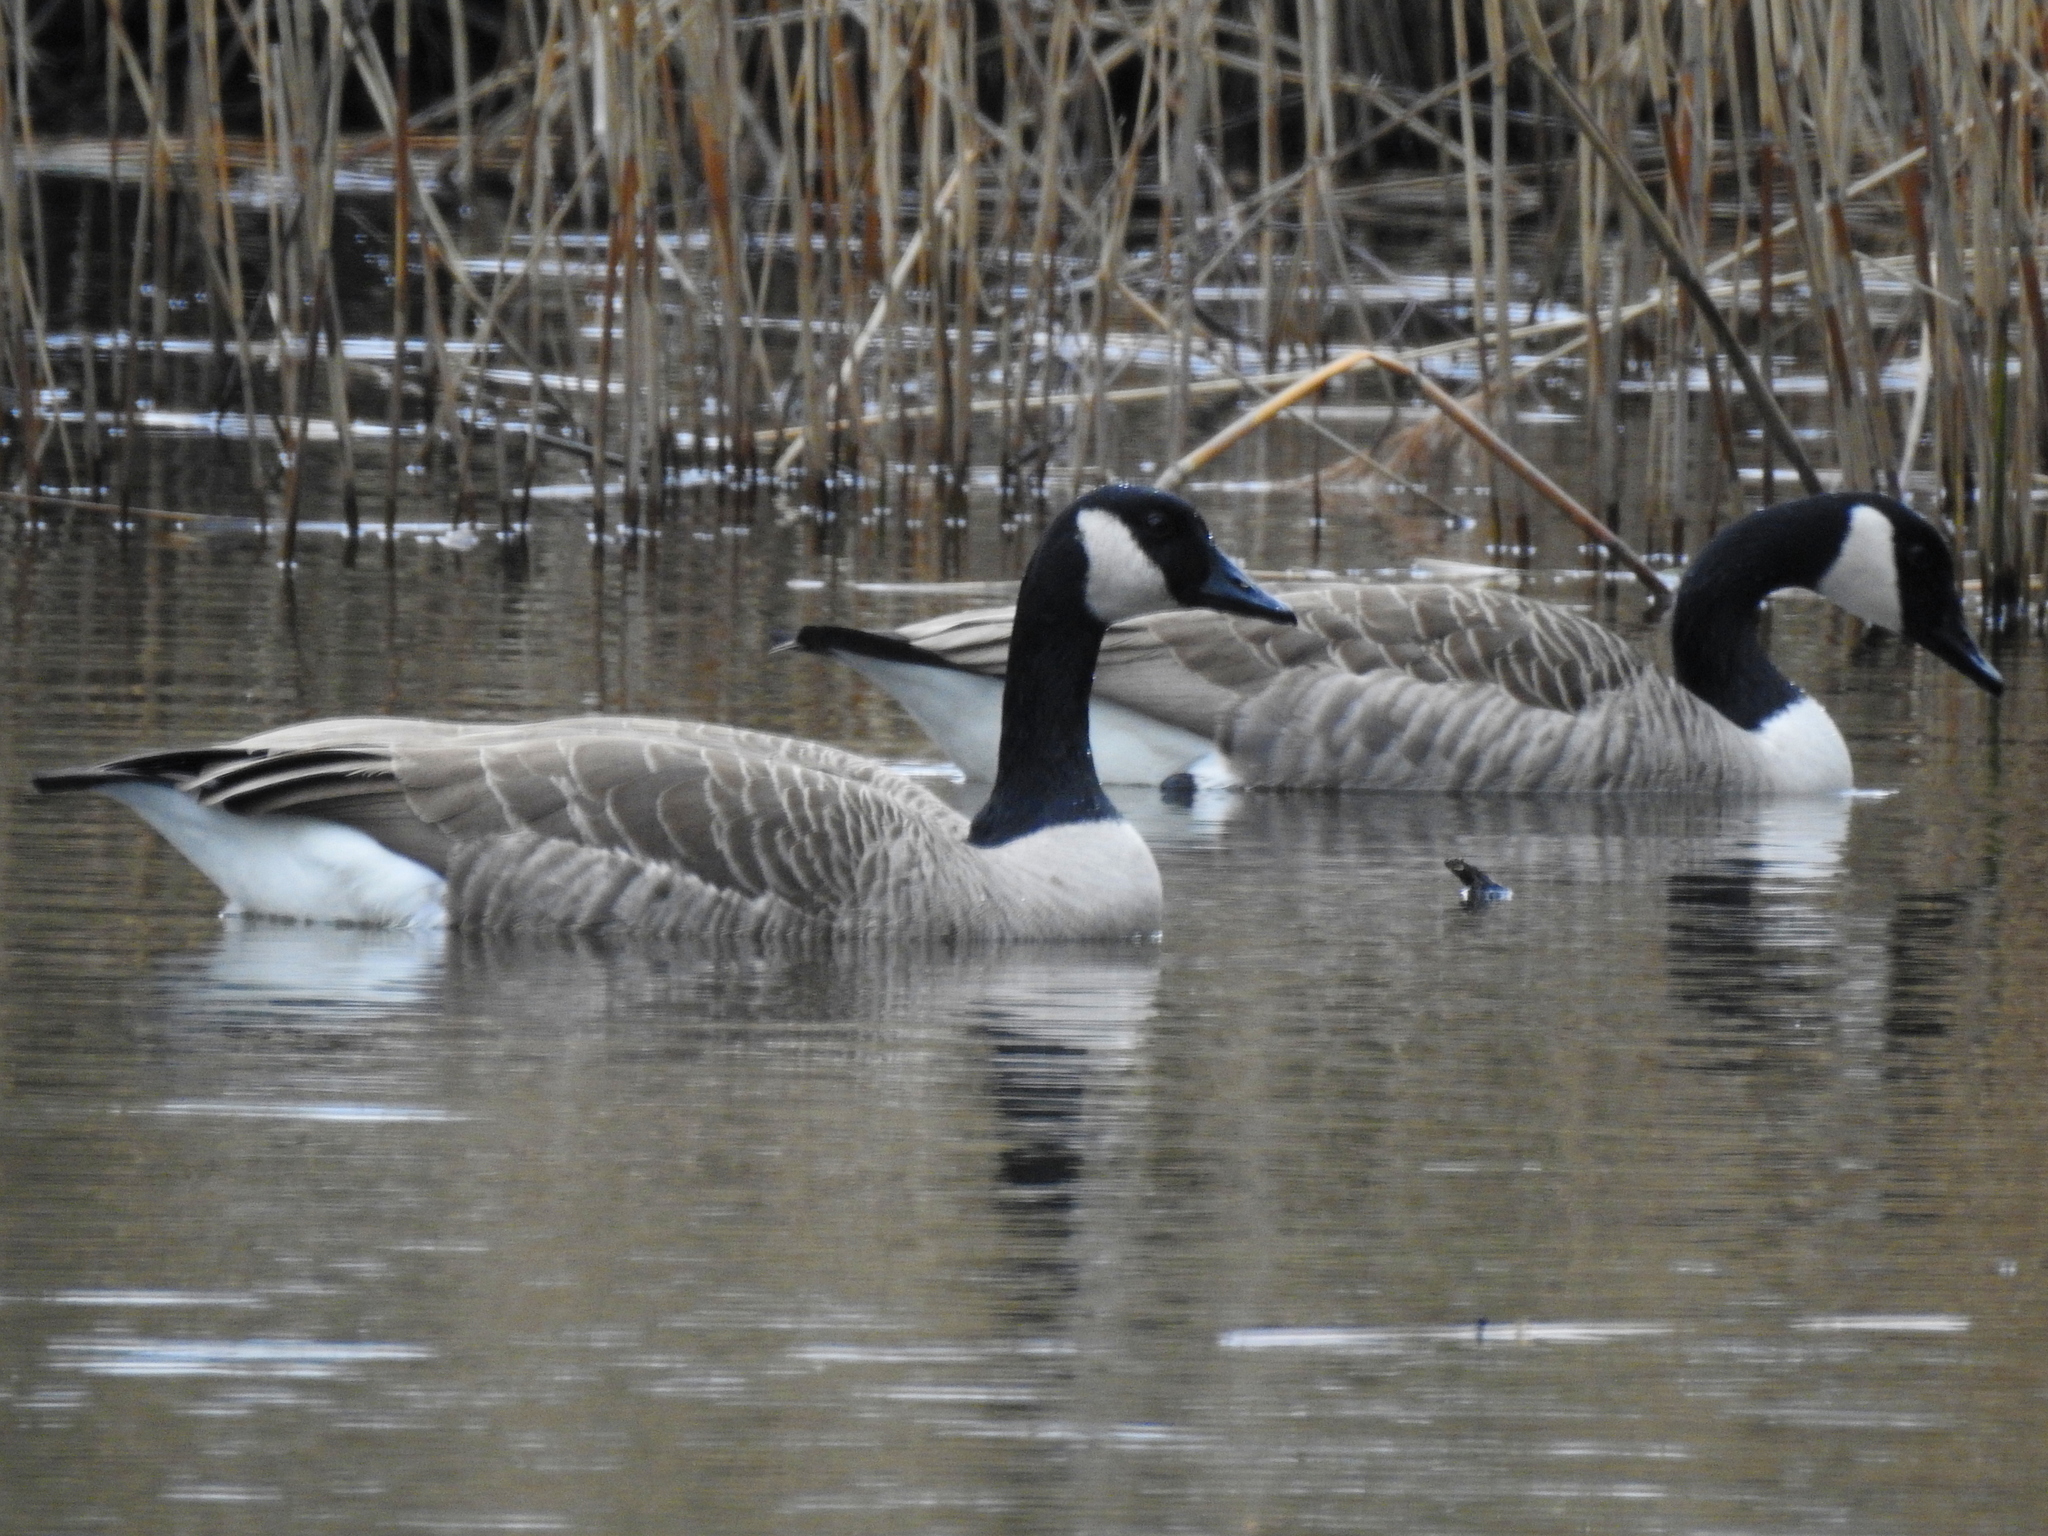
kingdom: Animalia
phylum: Chordata
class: Aves
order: Anseriformes
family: Anatidae
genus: Branta
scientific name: Branta canadensis
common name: Canada goose
